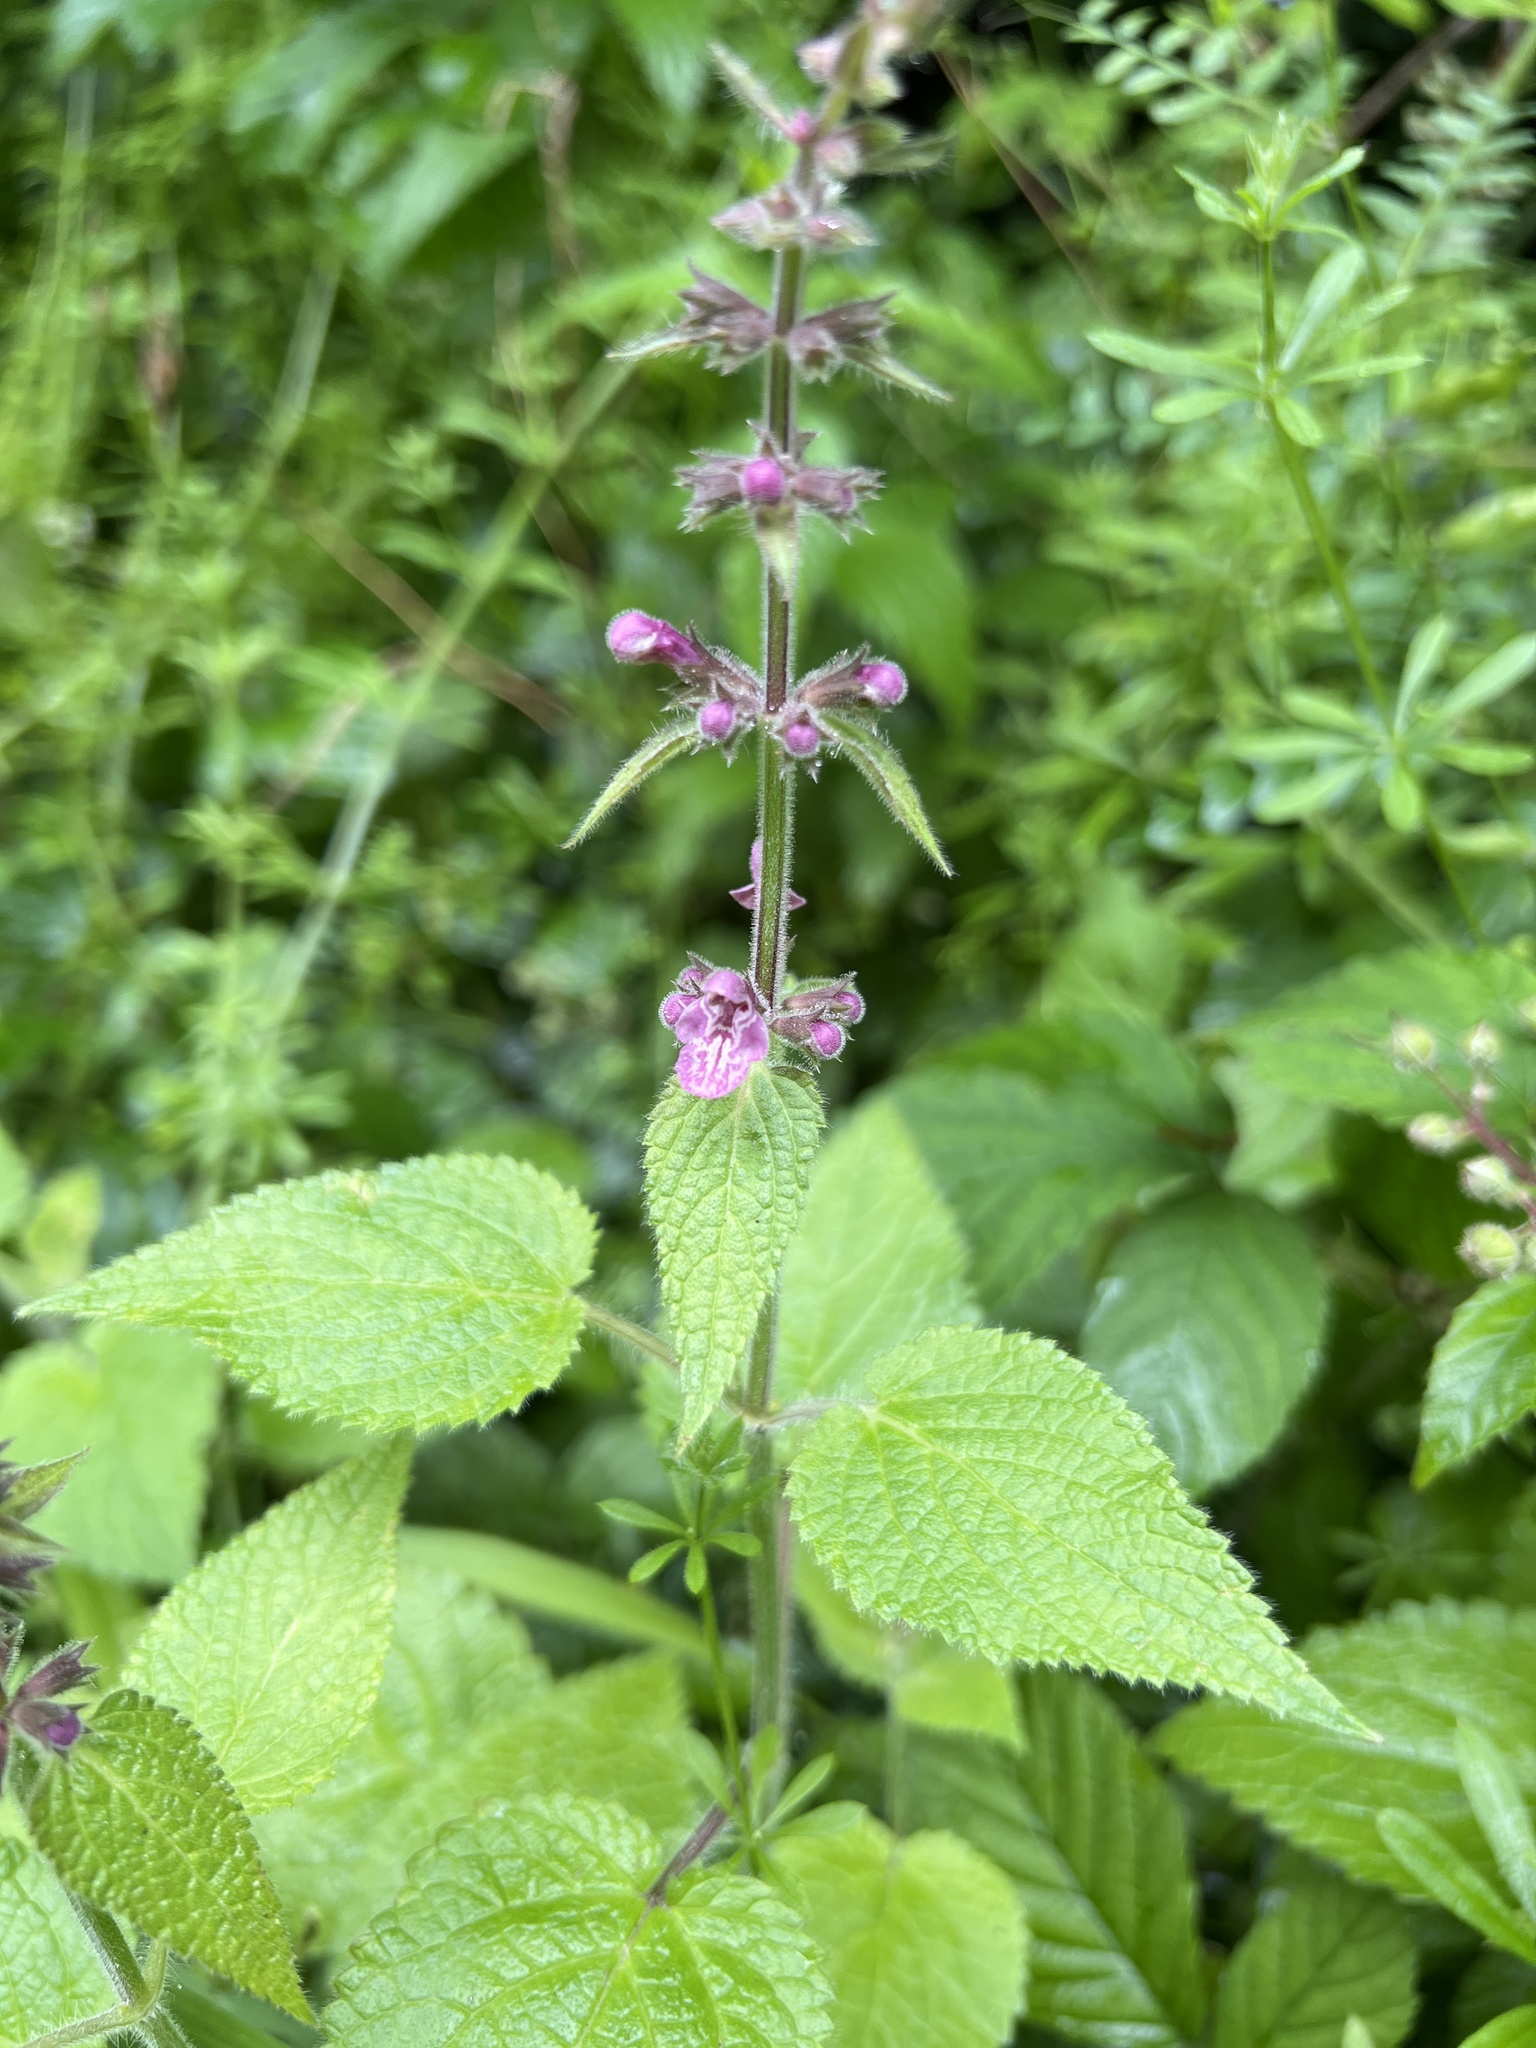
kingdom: Plantae
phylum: Tracheophyta
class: Magnoliopsida
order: Lamiales
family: Lamiaceae
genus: Stachys
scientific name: Stachys sylvatica
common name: Hedge woundwort
